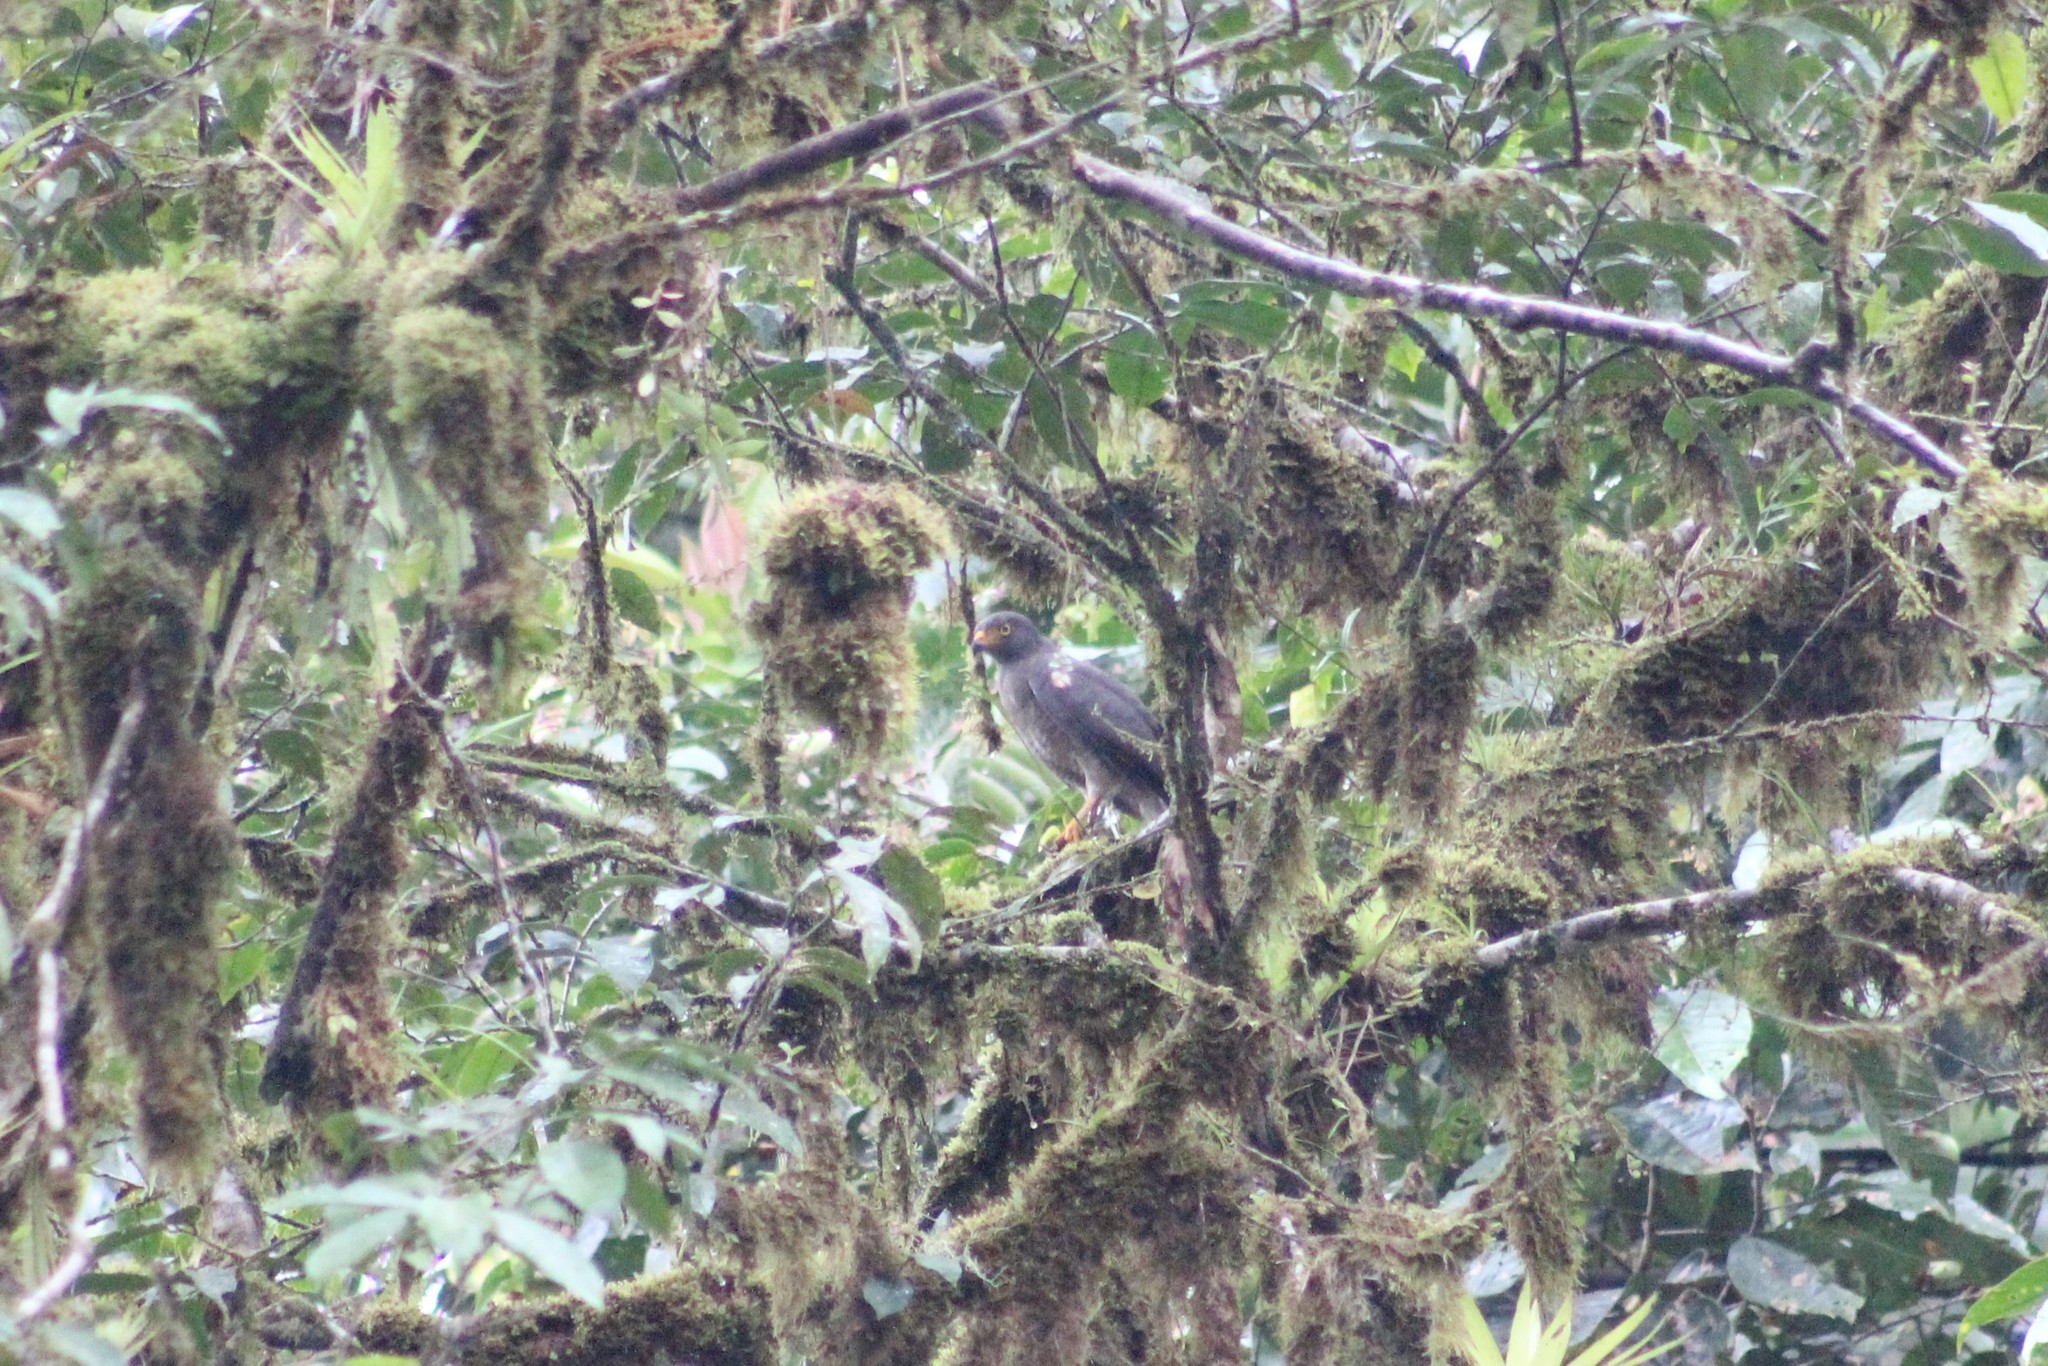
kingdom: Animalia
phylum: Chordata
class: Aves
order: Accipitriformes
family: Accipitridae
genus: Rupornis
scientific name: Rupornis magnirostris
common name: Roadside hawk
